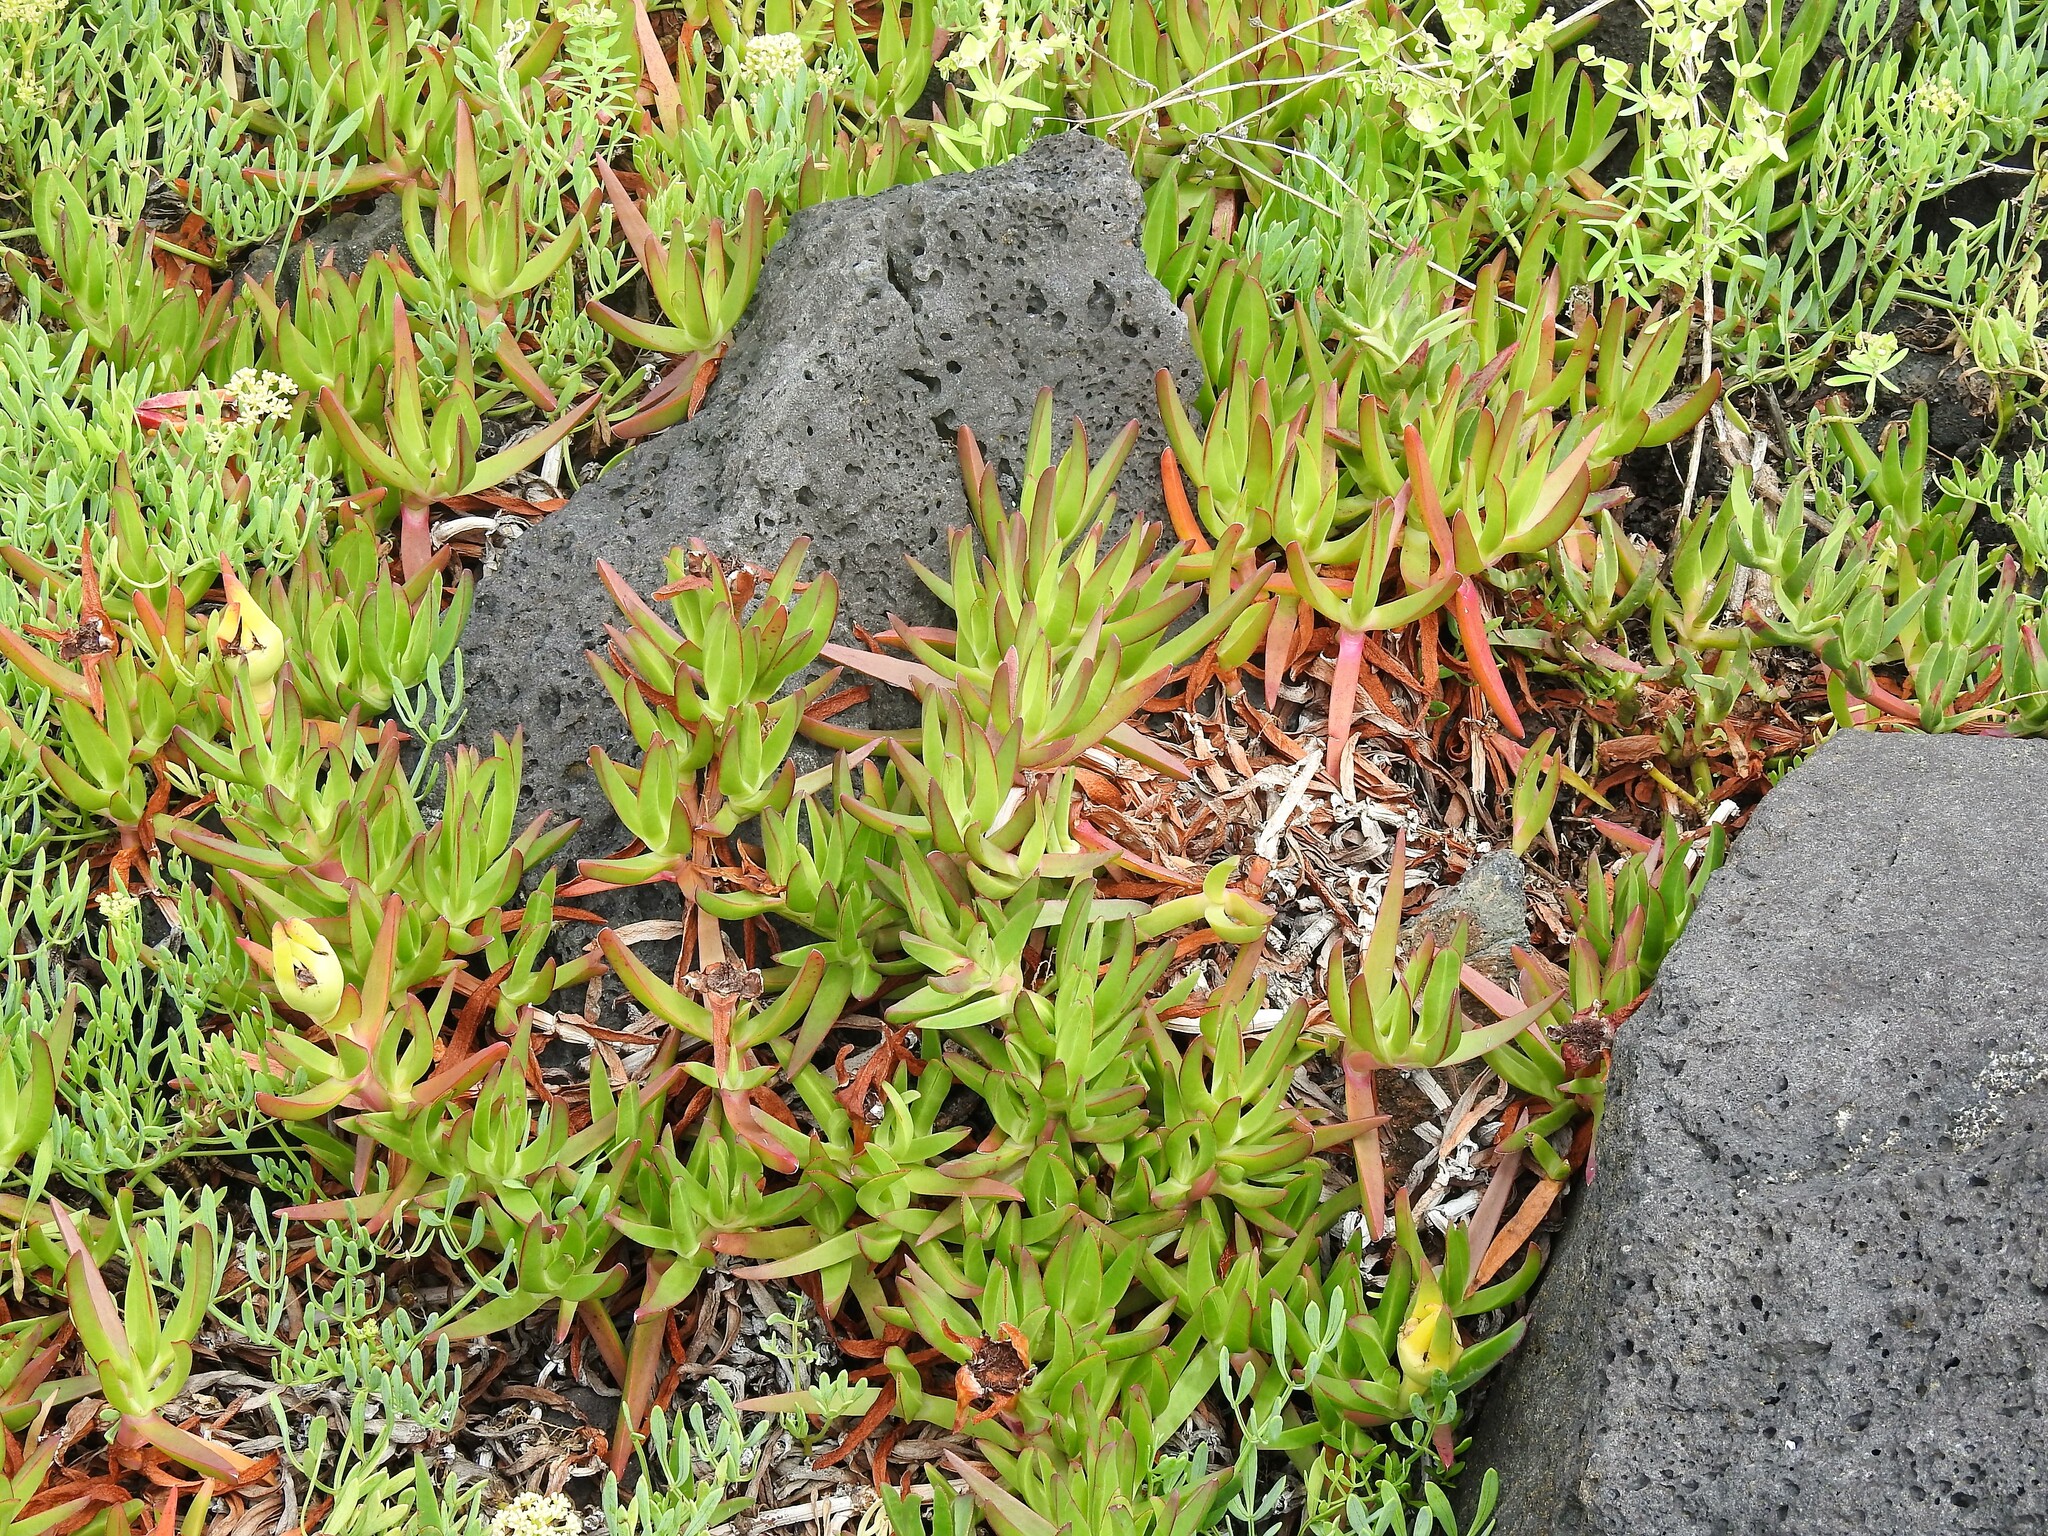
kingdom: Plantae
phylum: Tracheophyta
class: Magnoliopsida
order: Caryophyllales
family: Aizoaceae
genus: Carpobrotus
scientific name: Carpobrotus edulis
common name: Hottentot-fig
